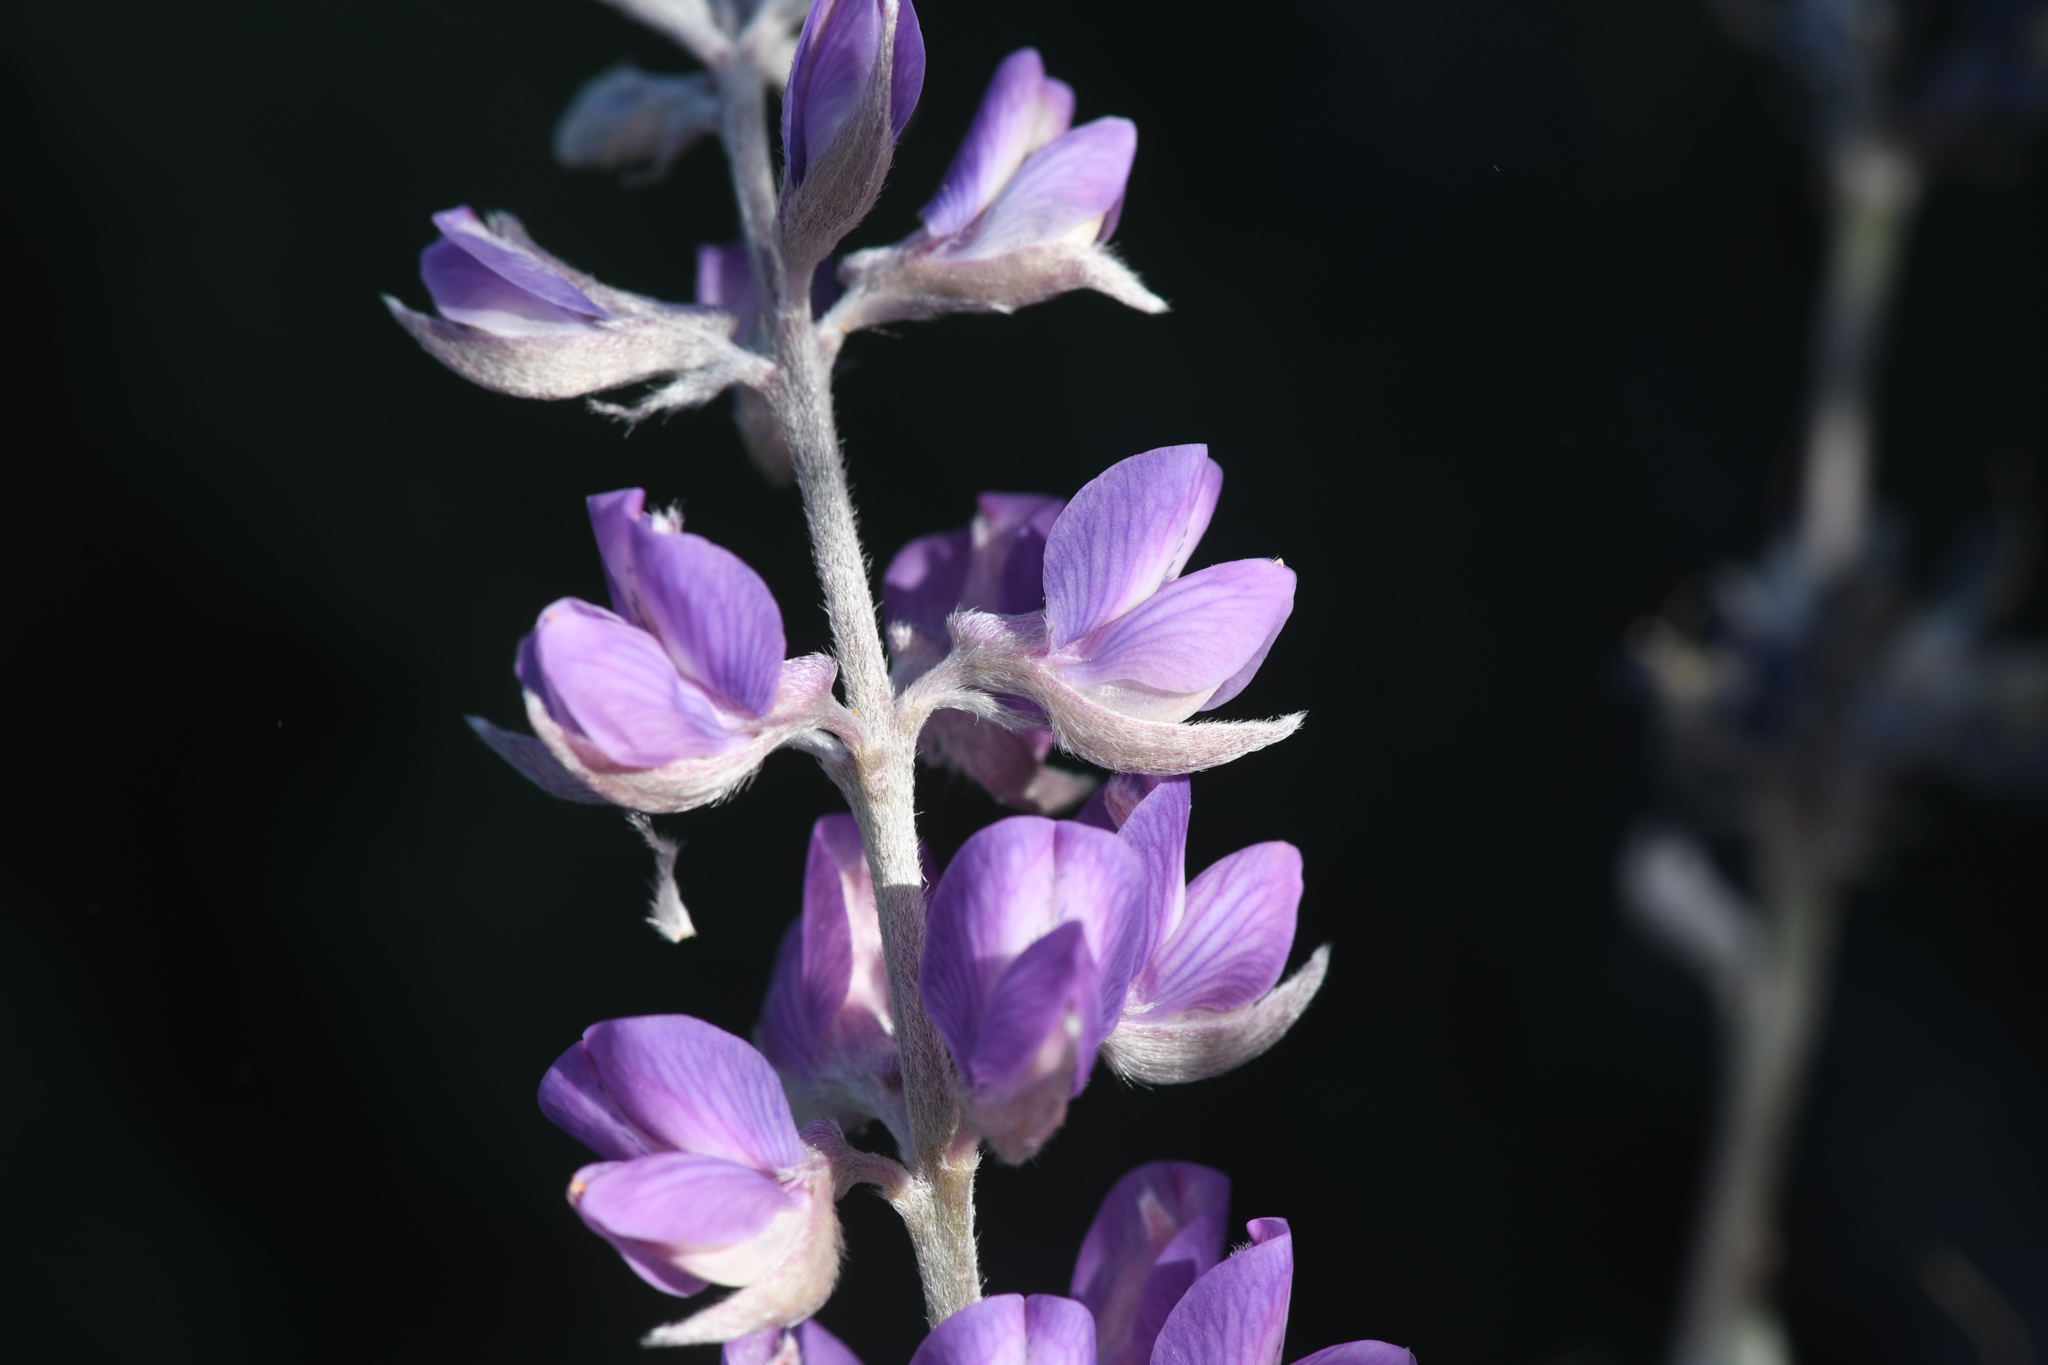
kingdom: Plantae
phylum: Tracheophyta
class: Magnoliopsida
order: Fabales
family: Fabaceae
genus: Lupinus
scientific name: Lupinus argenteus
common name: Silvery lupine
